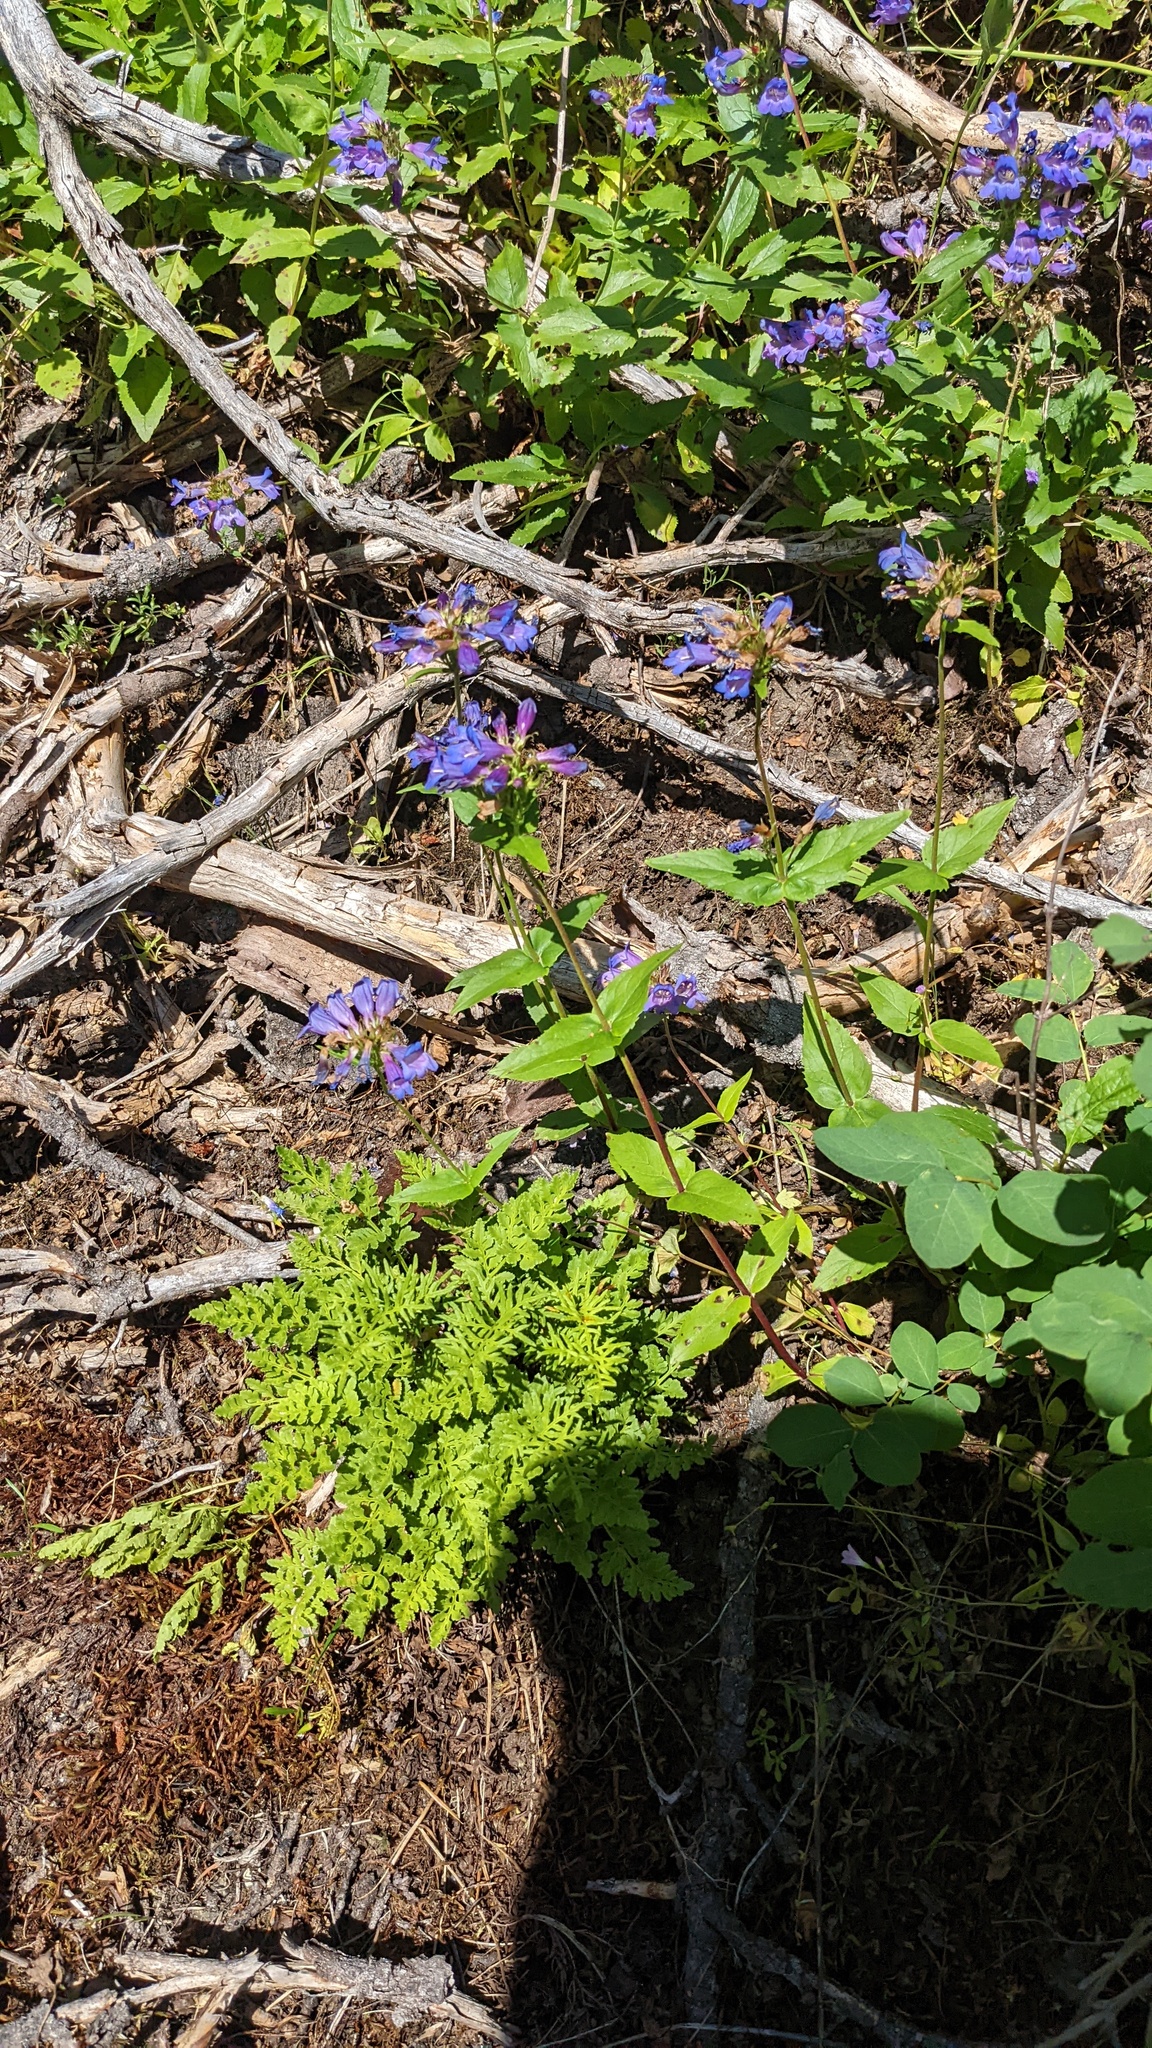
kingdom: Plantae
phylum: Tracheophyta
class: Magnoliopsida
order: Lamiales
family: Plantaginaceae
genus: Penstemon
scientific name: Penstemon serrulatus
